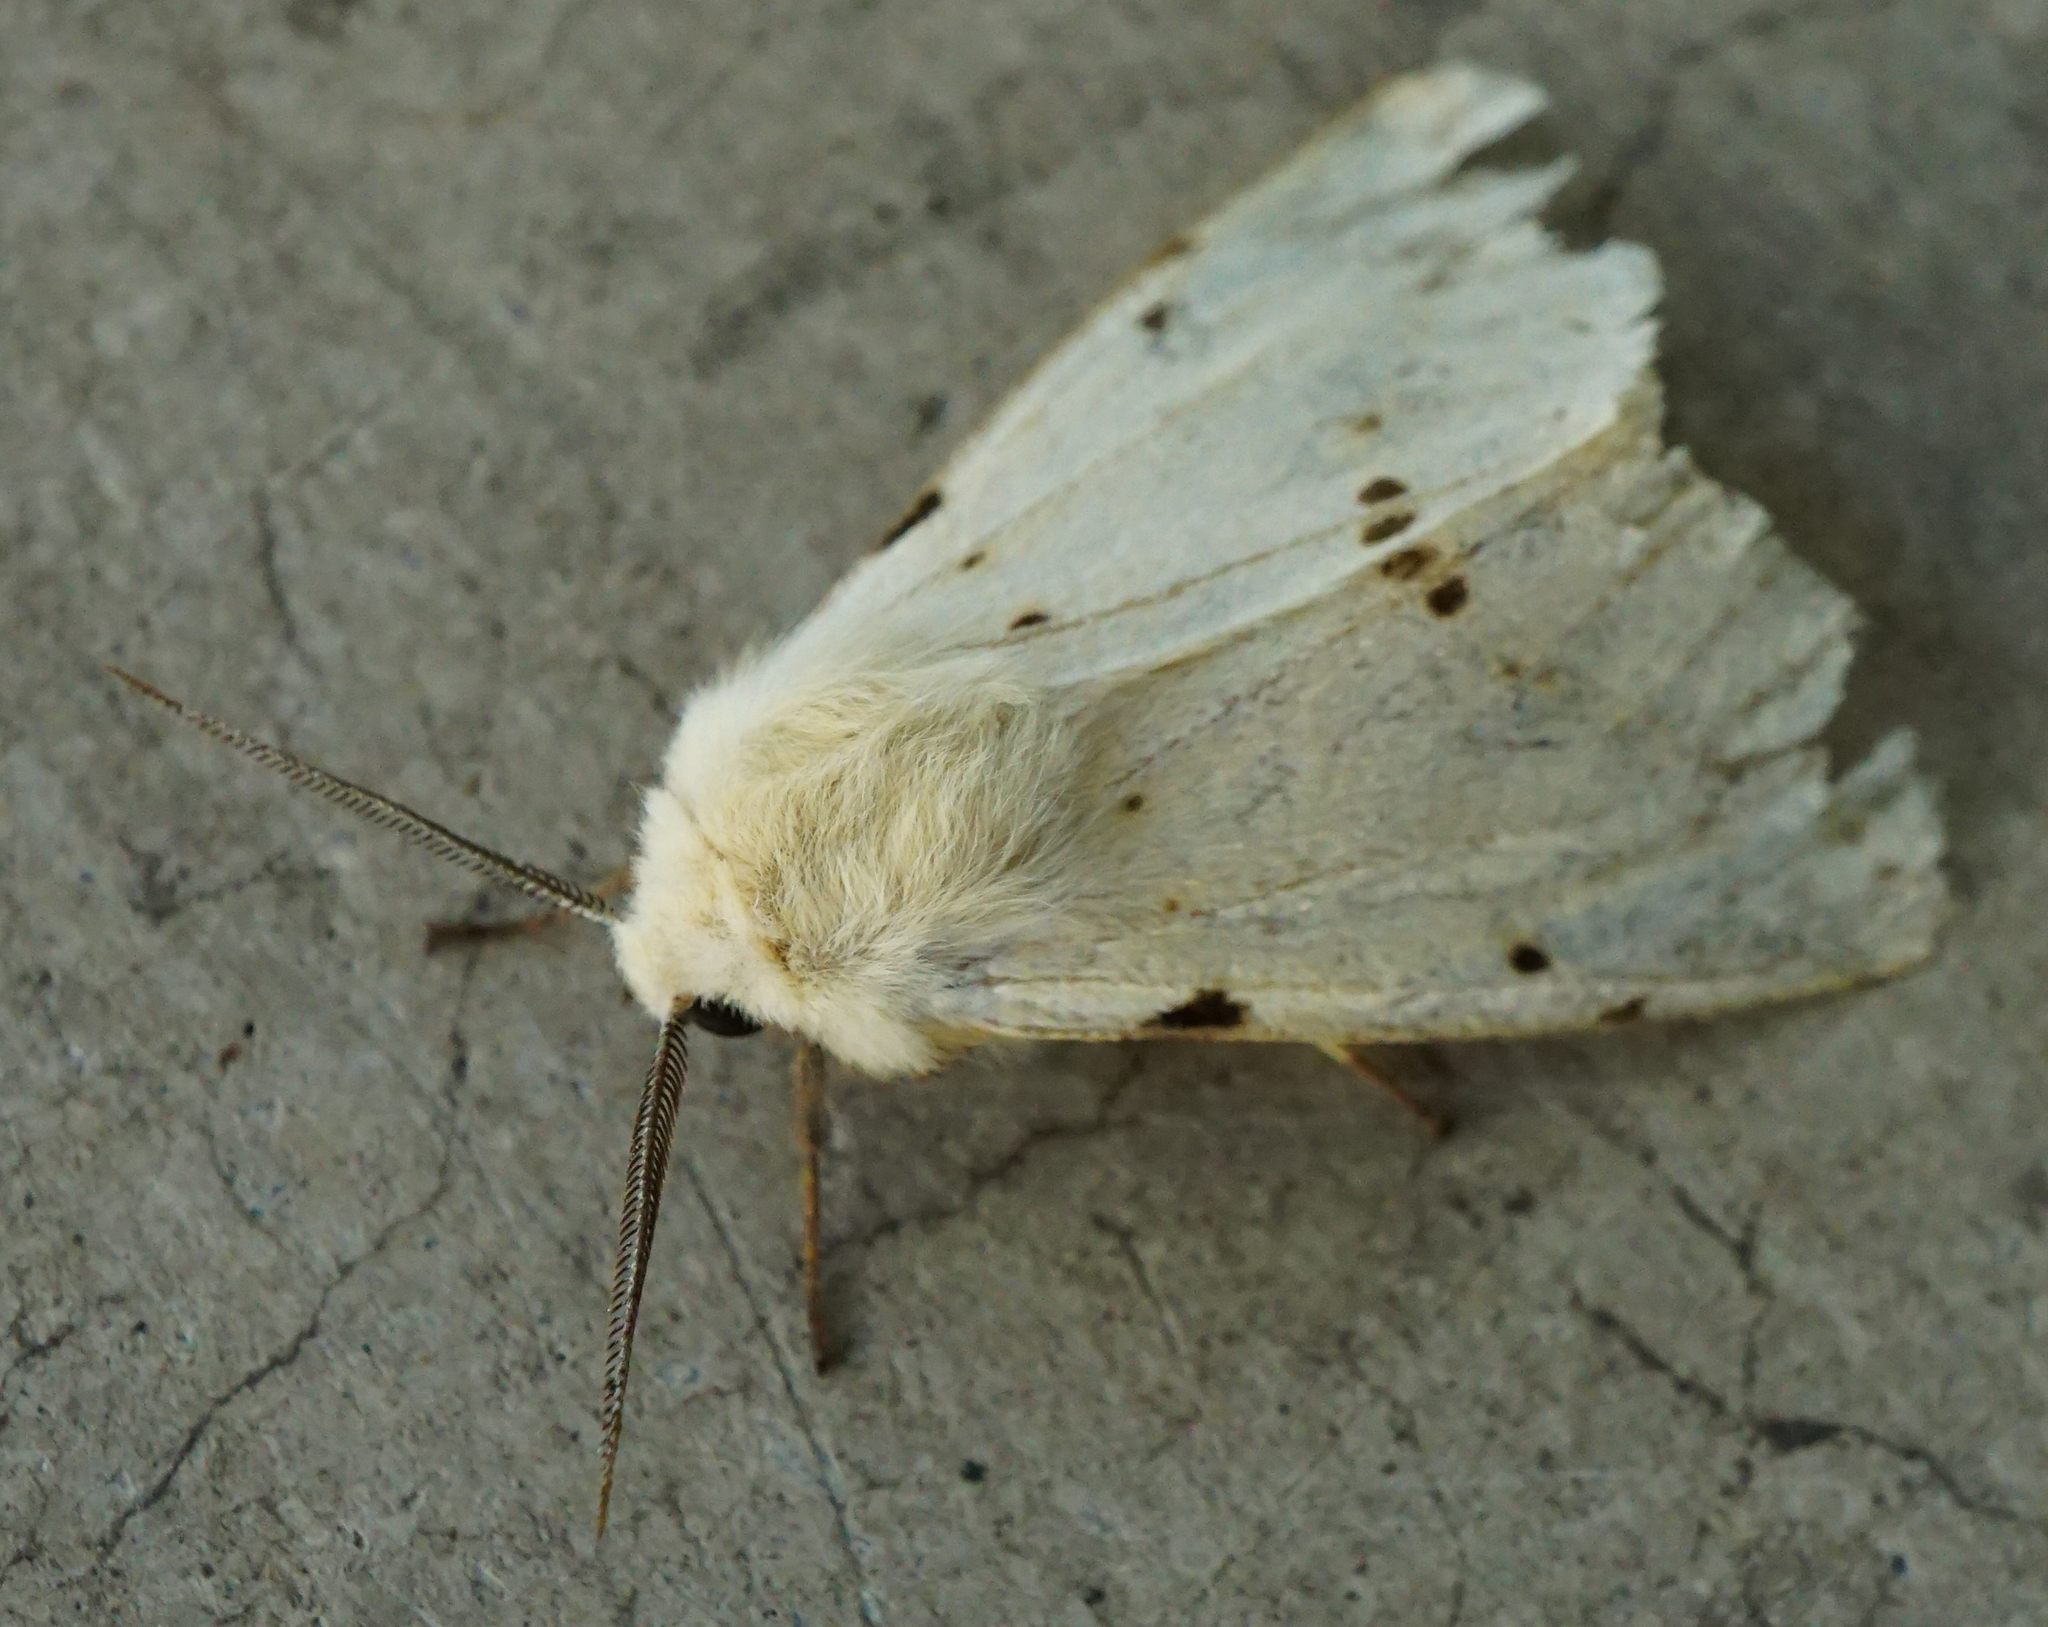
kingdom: Animalia
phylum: Arthropoda
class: Insecta
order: Lepidoptera
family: Erebidae
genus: Spilarctia
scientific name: Spilarctia lutea
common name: Buff ermine
